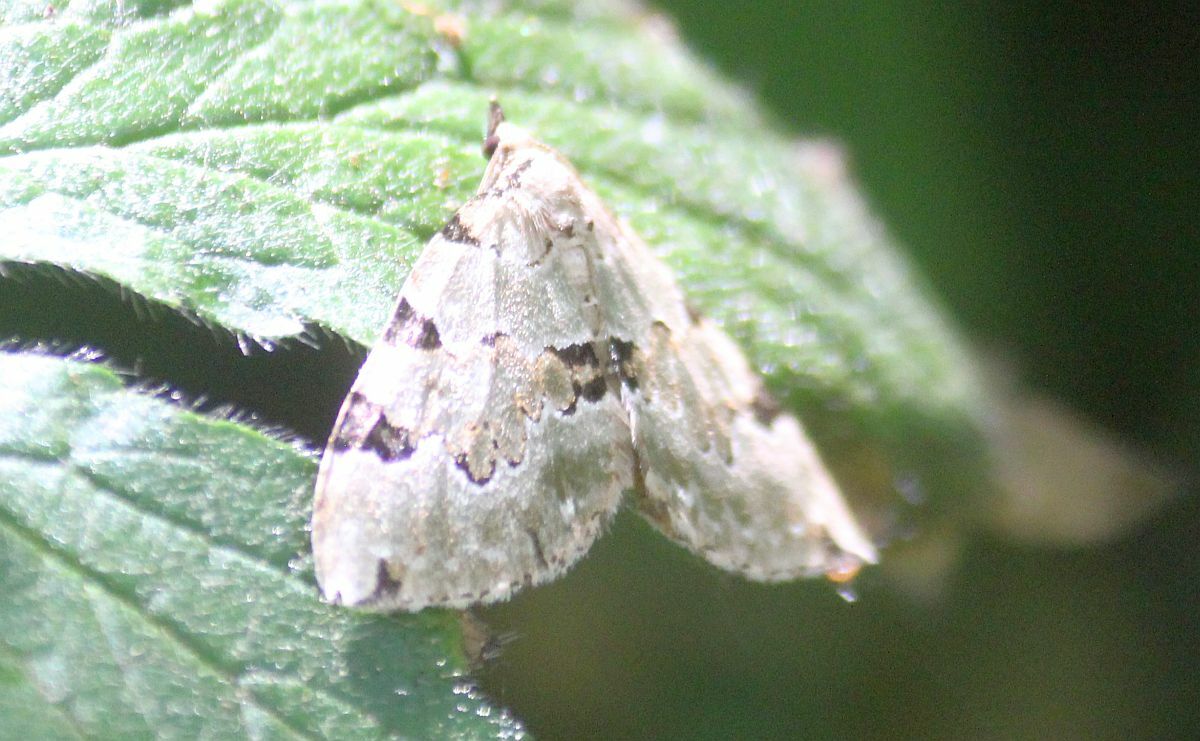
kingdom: Animalia
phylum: Arthropoda
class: Insecta
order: Lepidoptera
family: Geometridae
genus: Colostygia
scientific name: Colostygia pectinataria
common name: Green carpet
